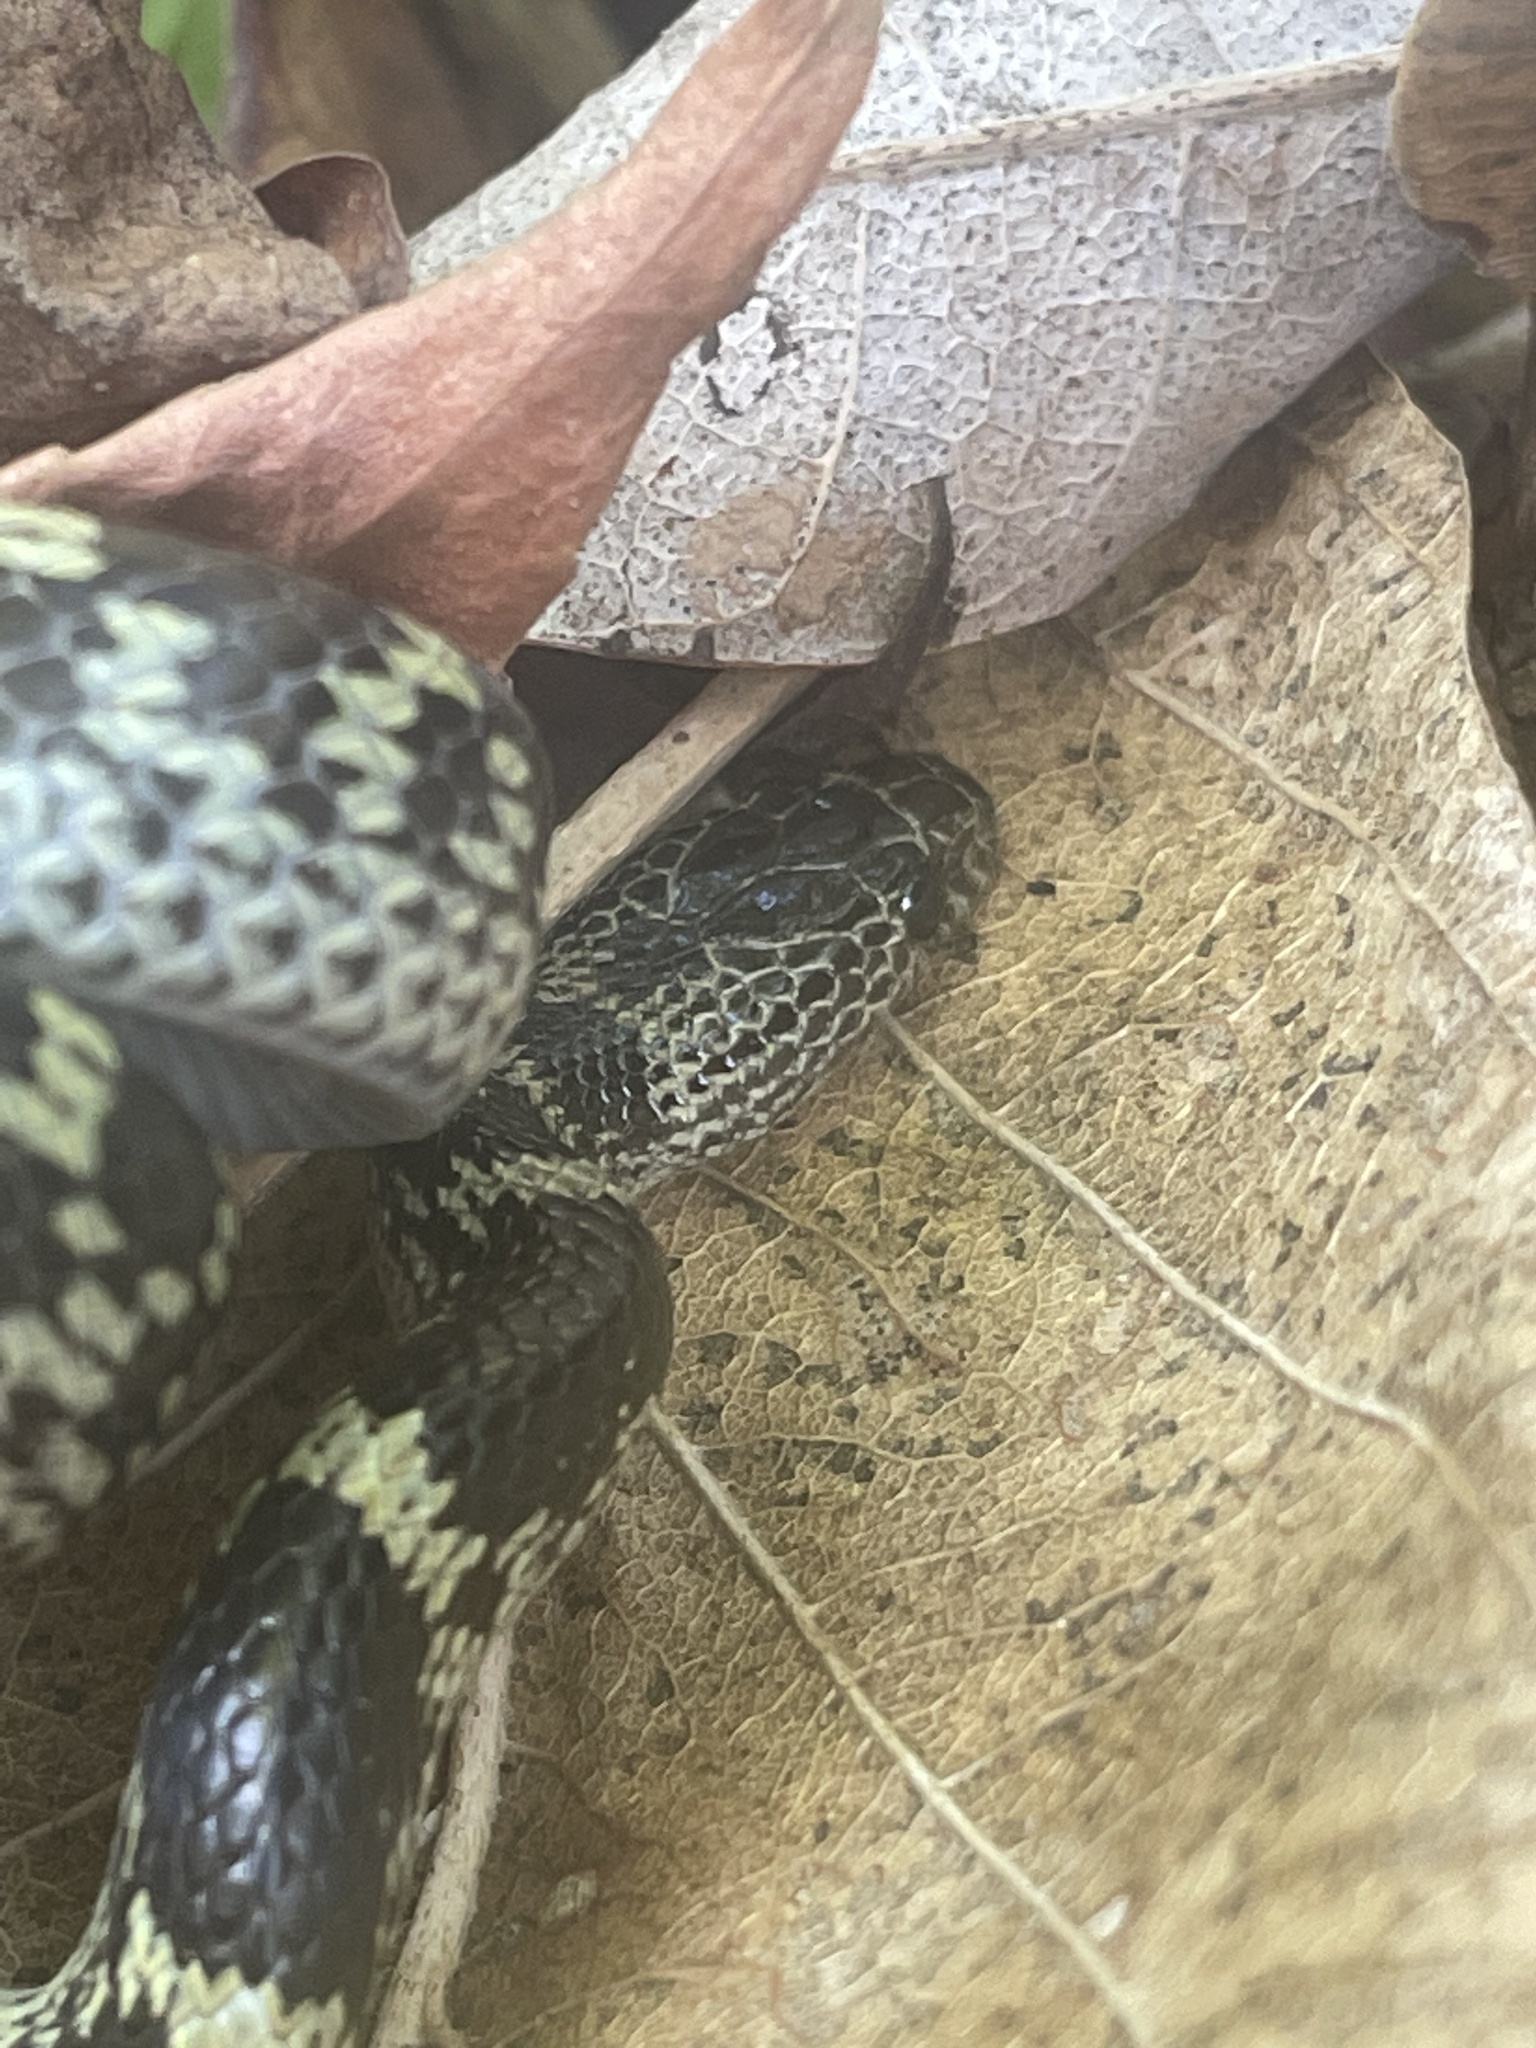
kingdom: Animalia
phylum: Chordata
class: Squamata
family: Colubridae
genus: Lycodon
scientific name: Lycodon travancoricus
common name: Travancore wolf snake
